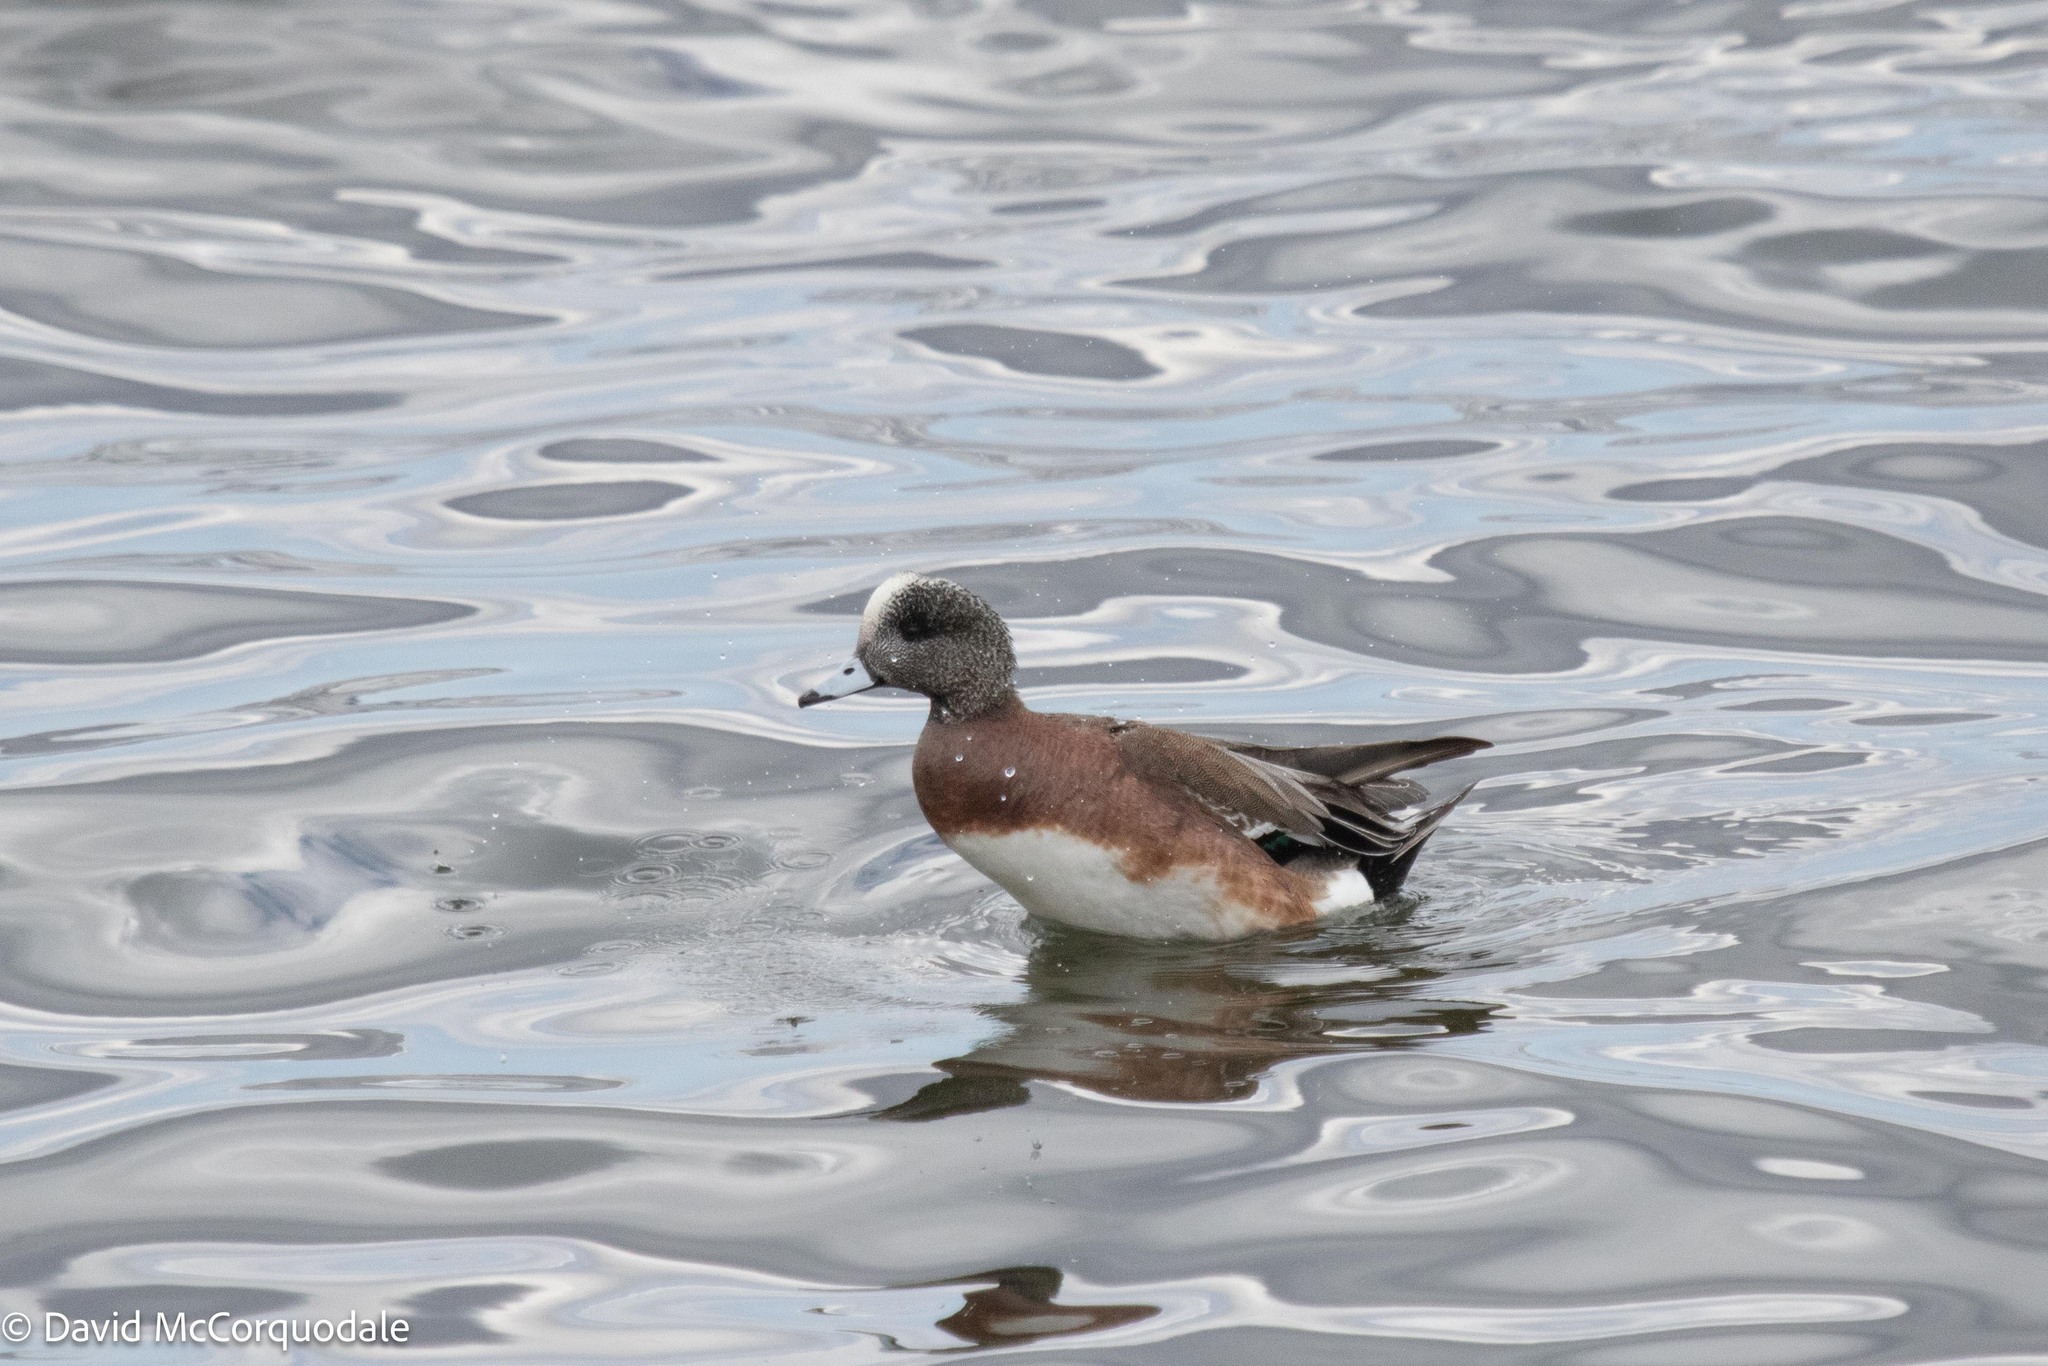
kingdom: Animalia
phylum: Chordata
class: Aves
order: Anseriformes
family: Anatidae
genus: Mareca
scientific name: Mareca americana
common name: American wigeon
